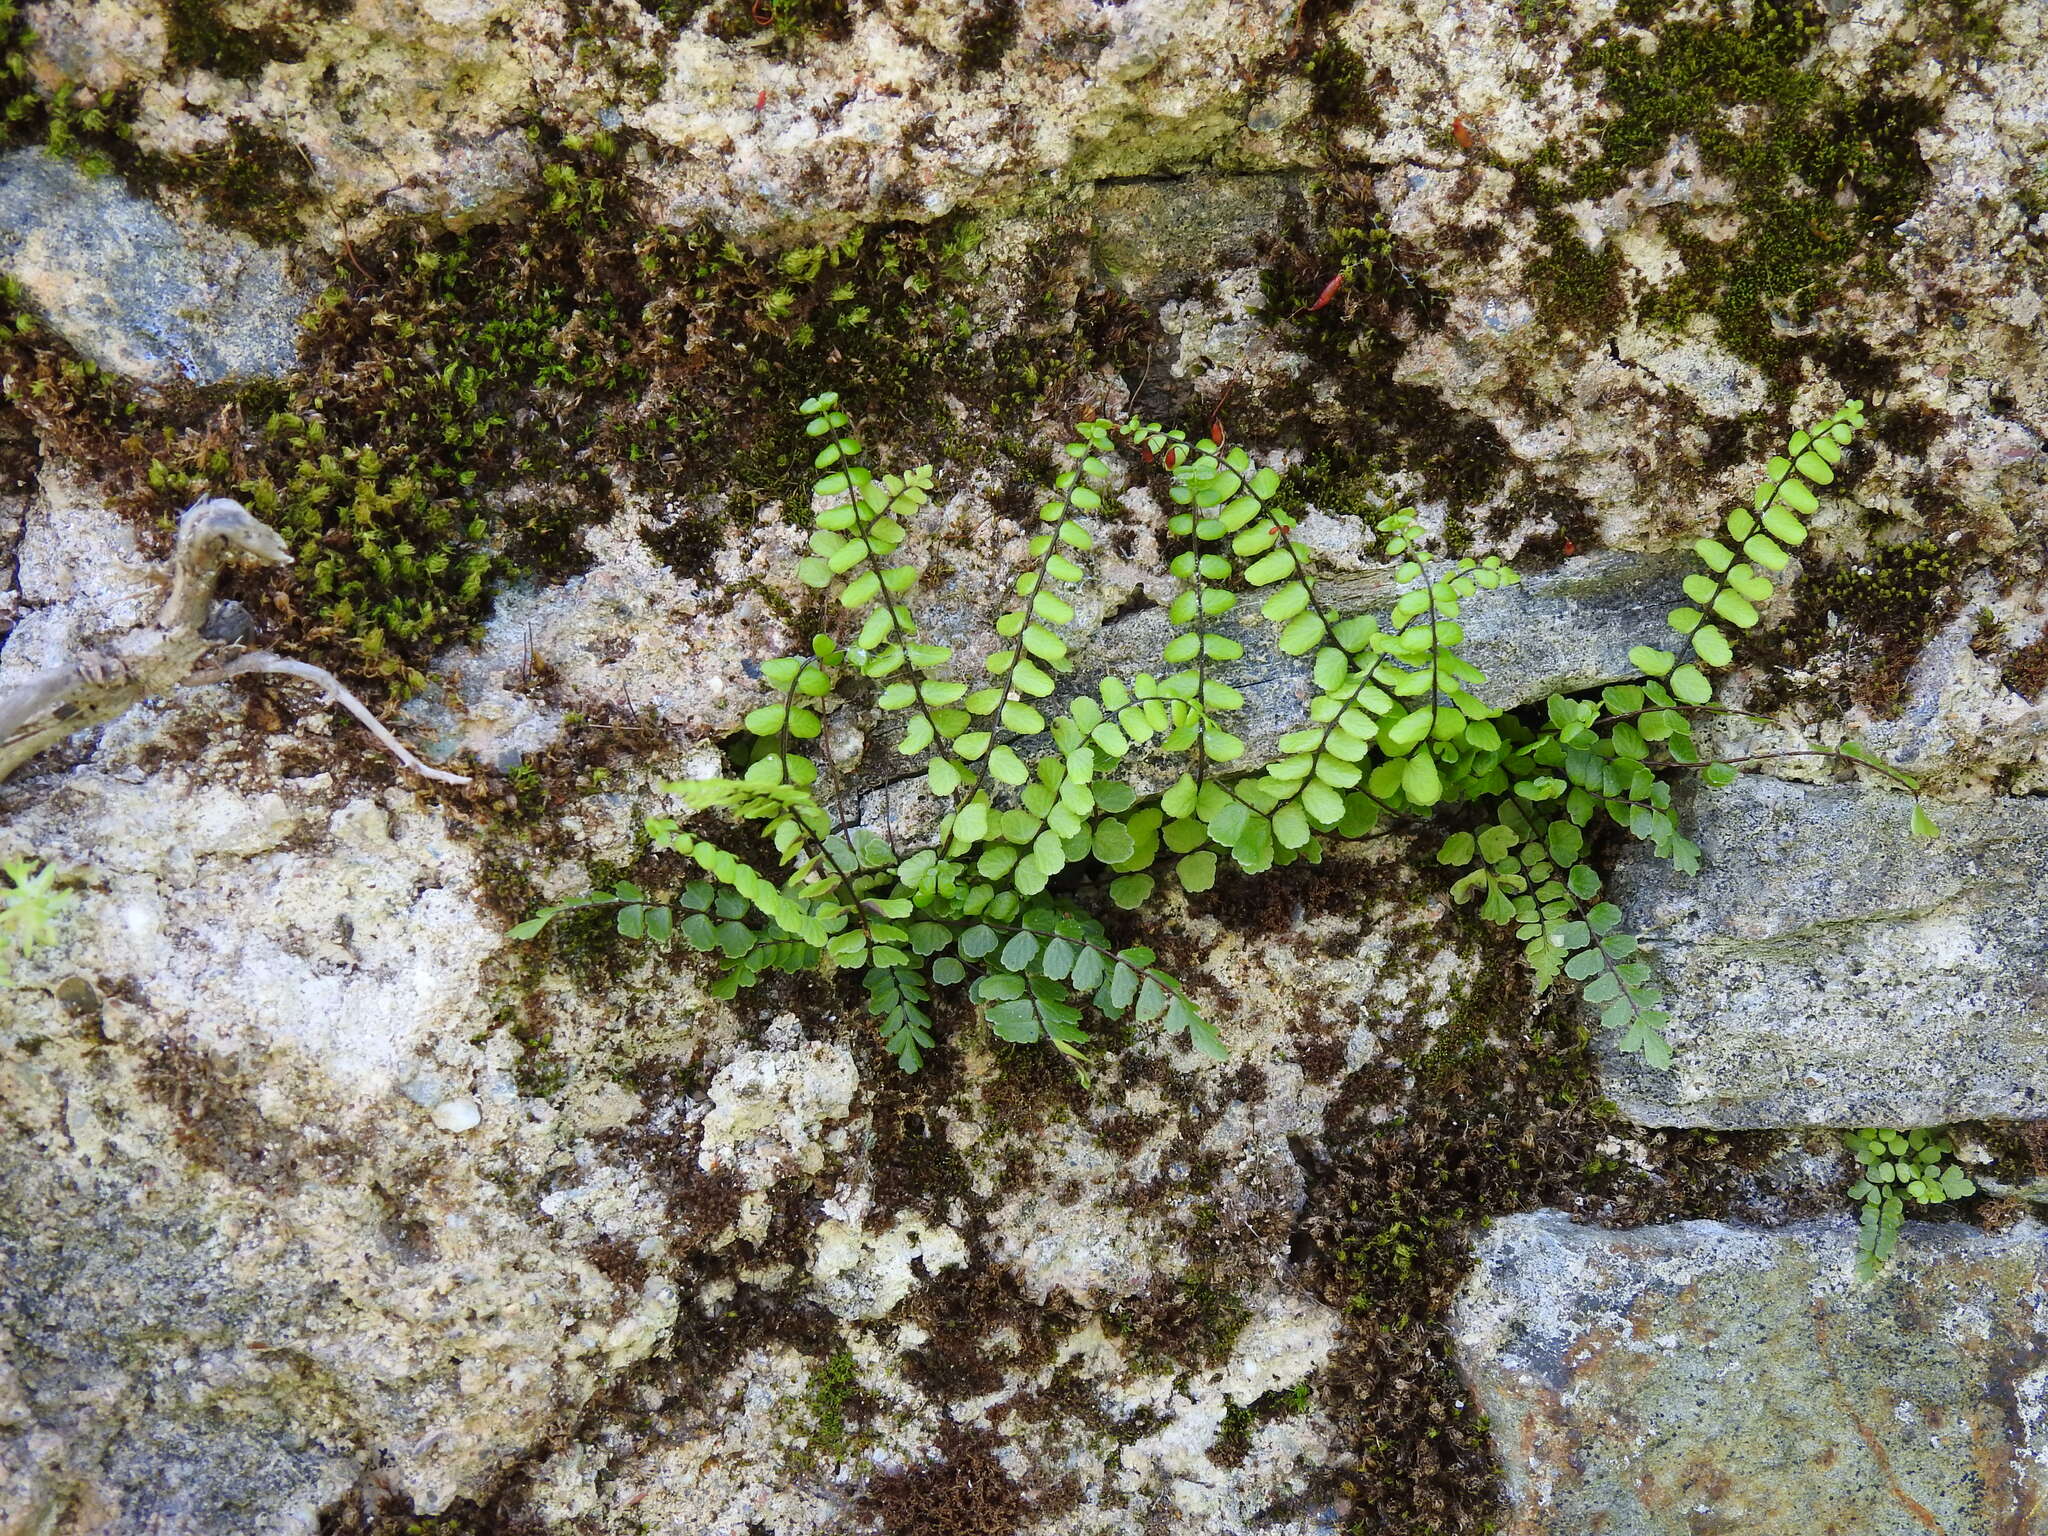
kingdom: Plantae
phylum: Tracheophyta
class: Polypodiopsida
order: Polypodiales
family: Aspleniaceae
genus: Asplenium
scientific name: Asplenium trichomanes
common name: Maidenhair spleenwort
